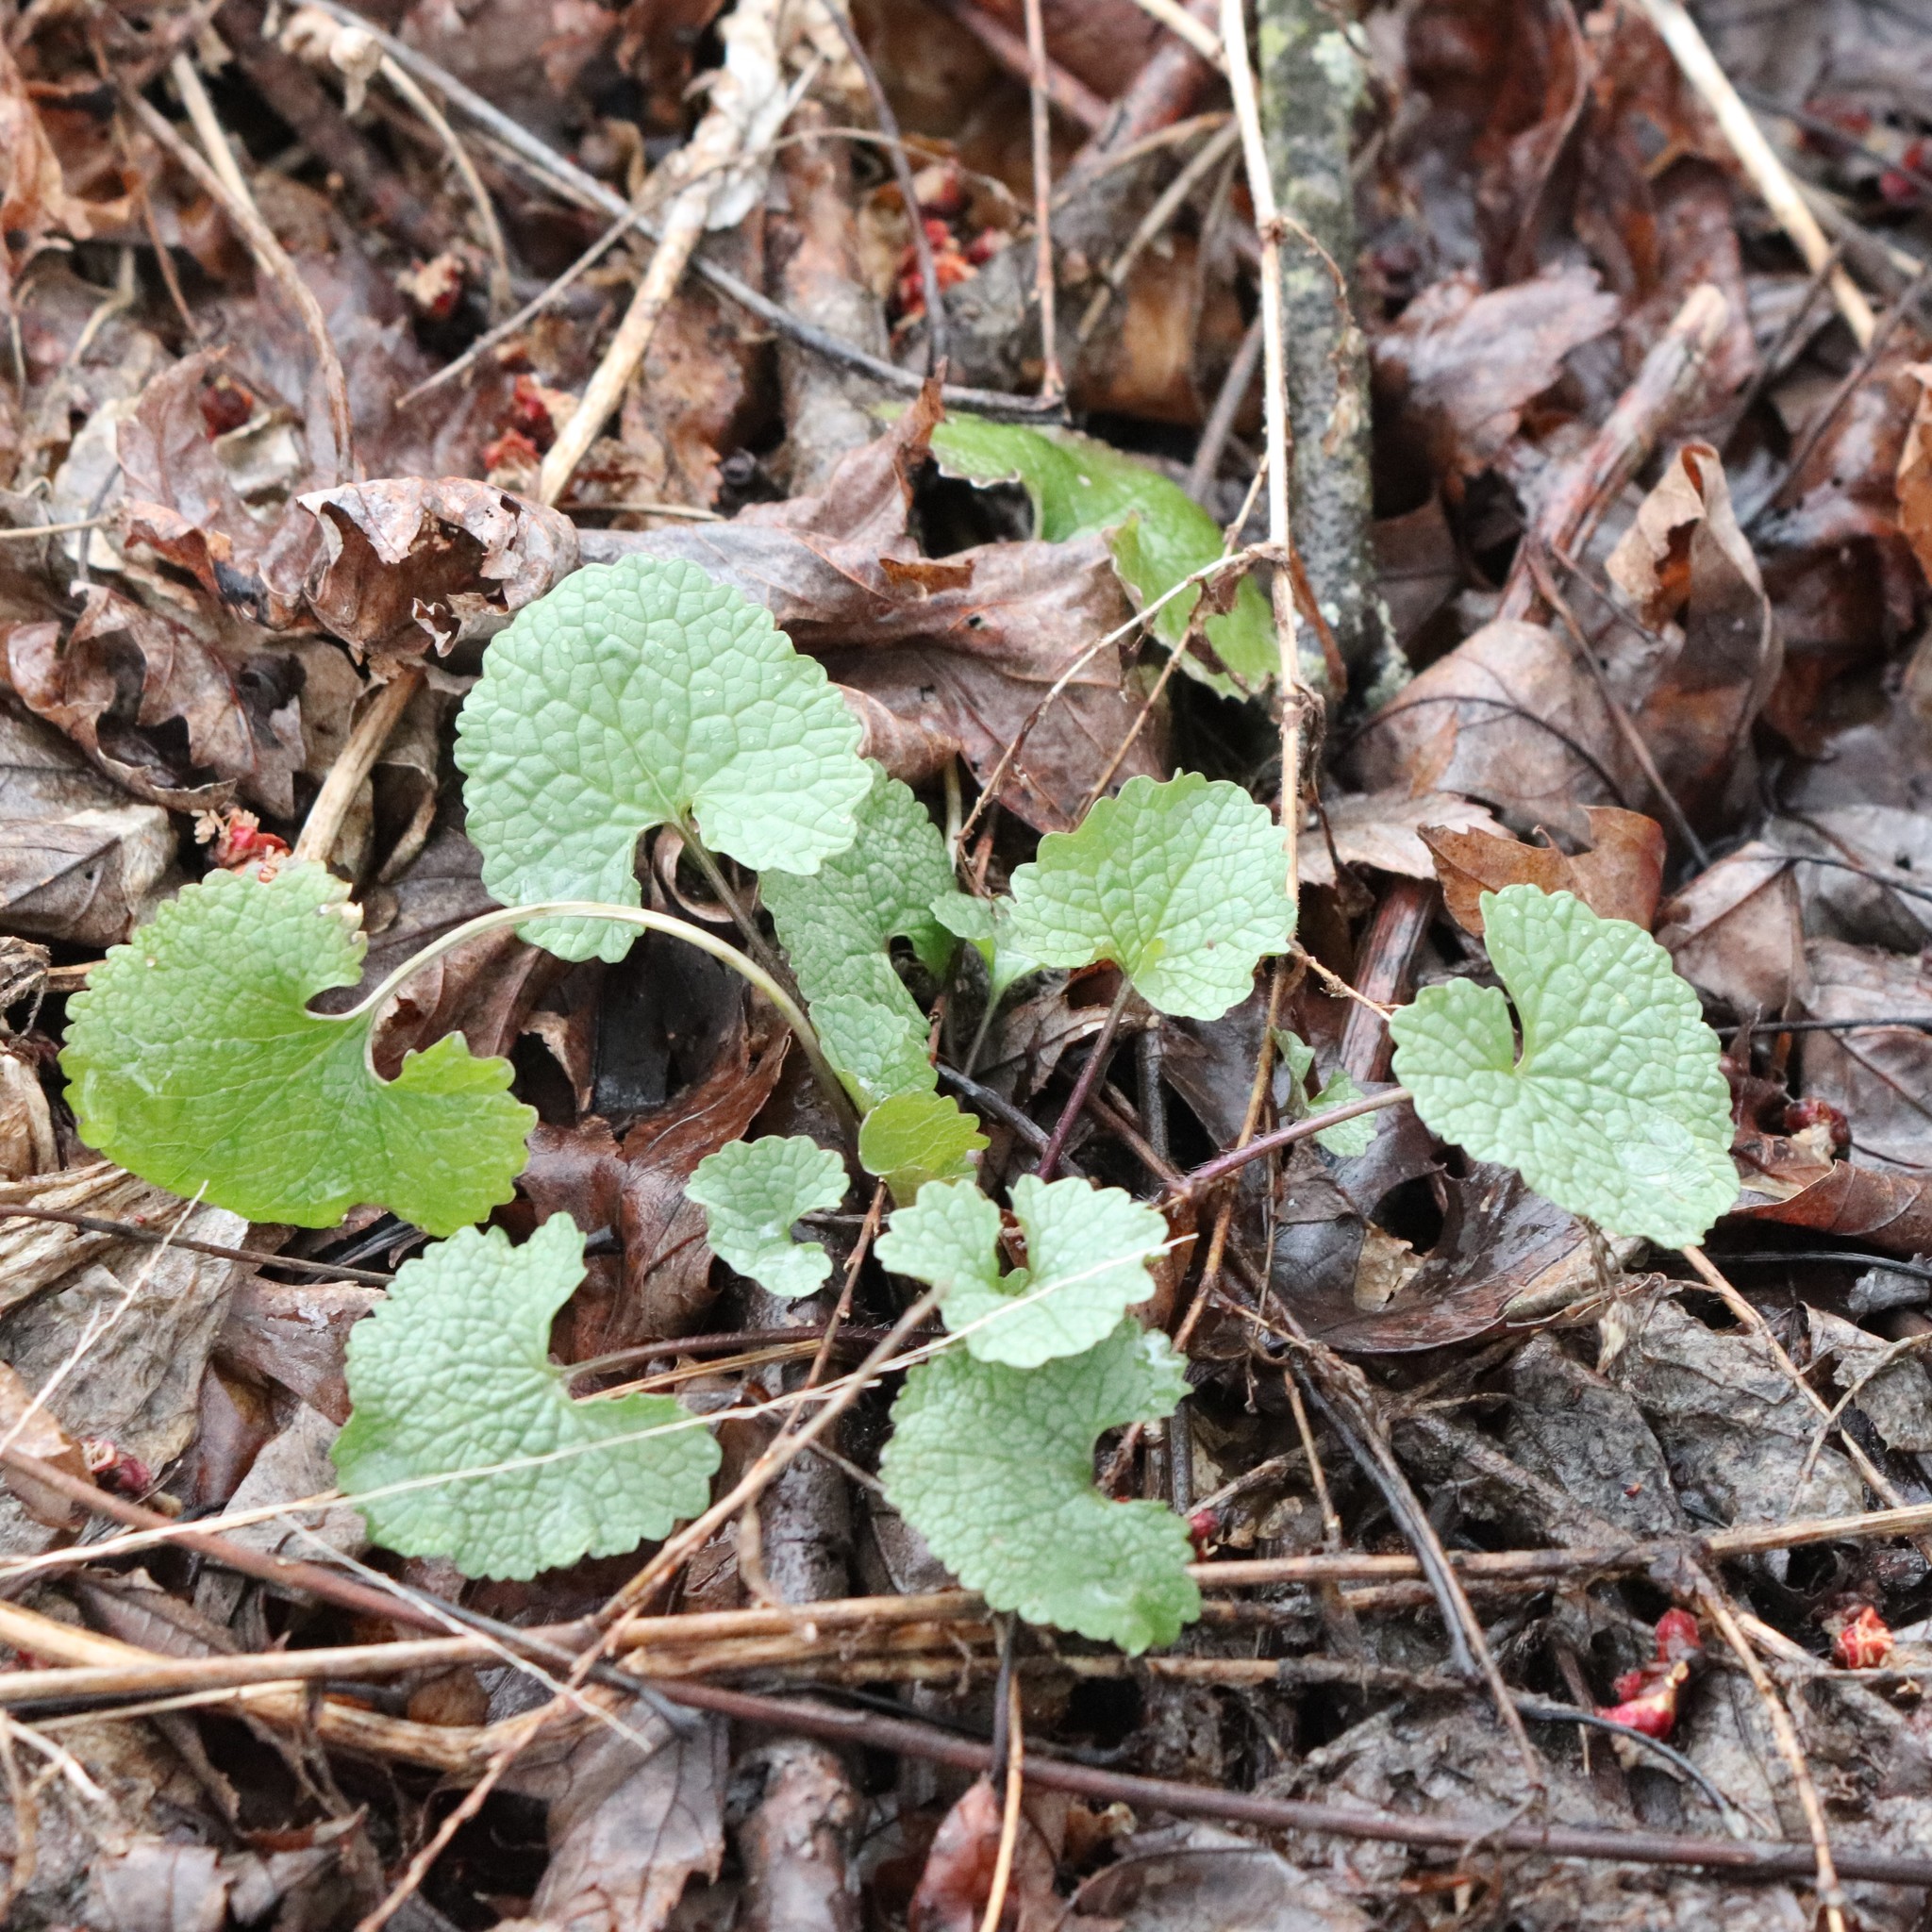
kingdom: Plantae
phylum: Tracheophyta
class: Magnoliopsida
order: Brassicales
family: Brassicaceae
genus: Alliaria
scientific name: Alliaria petiolata
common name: Garlic mustard
